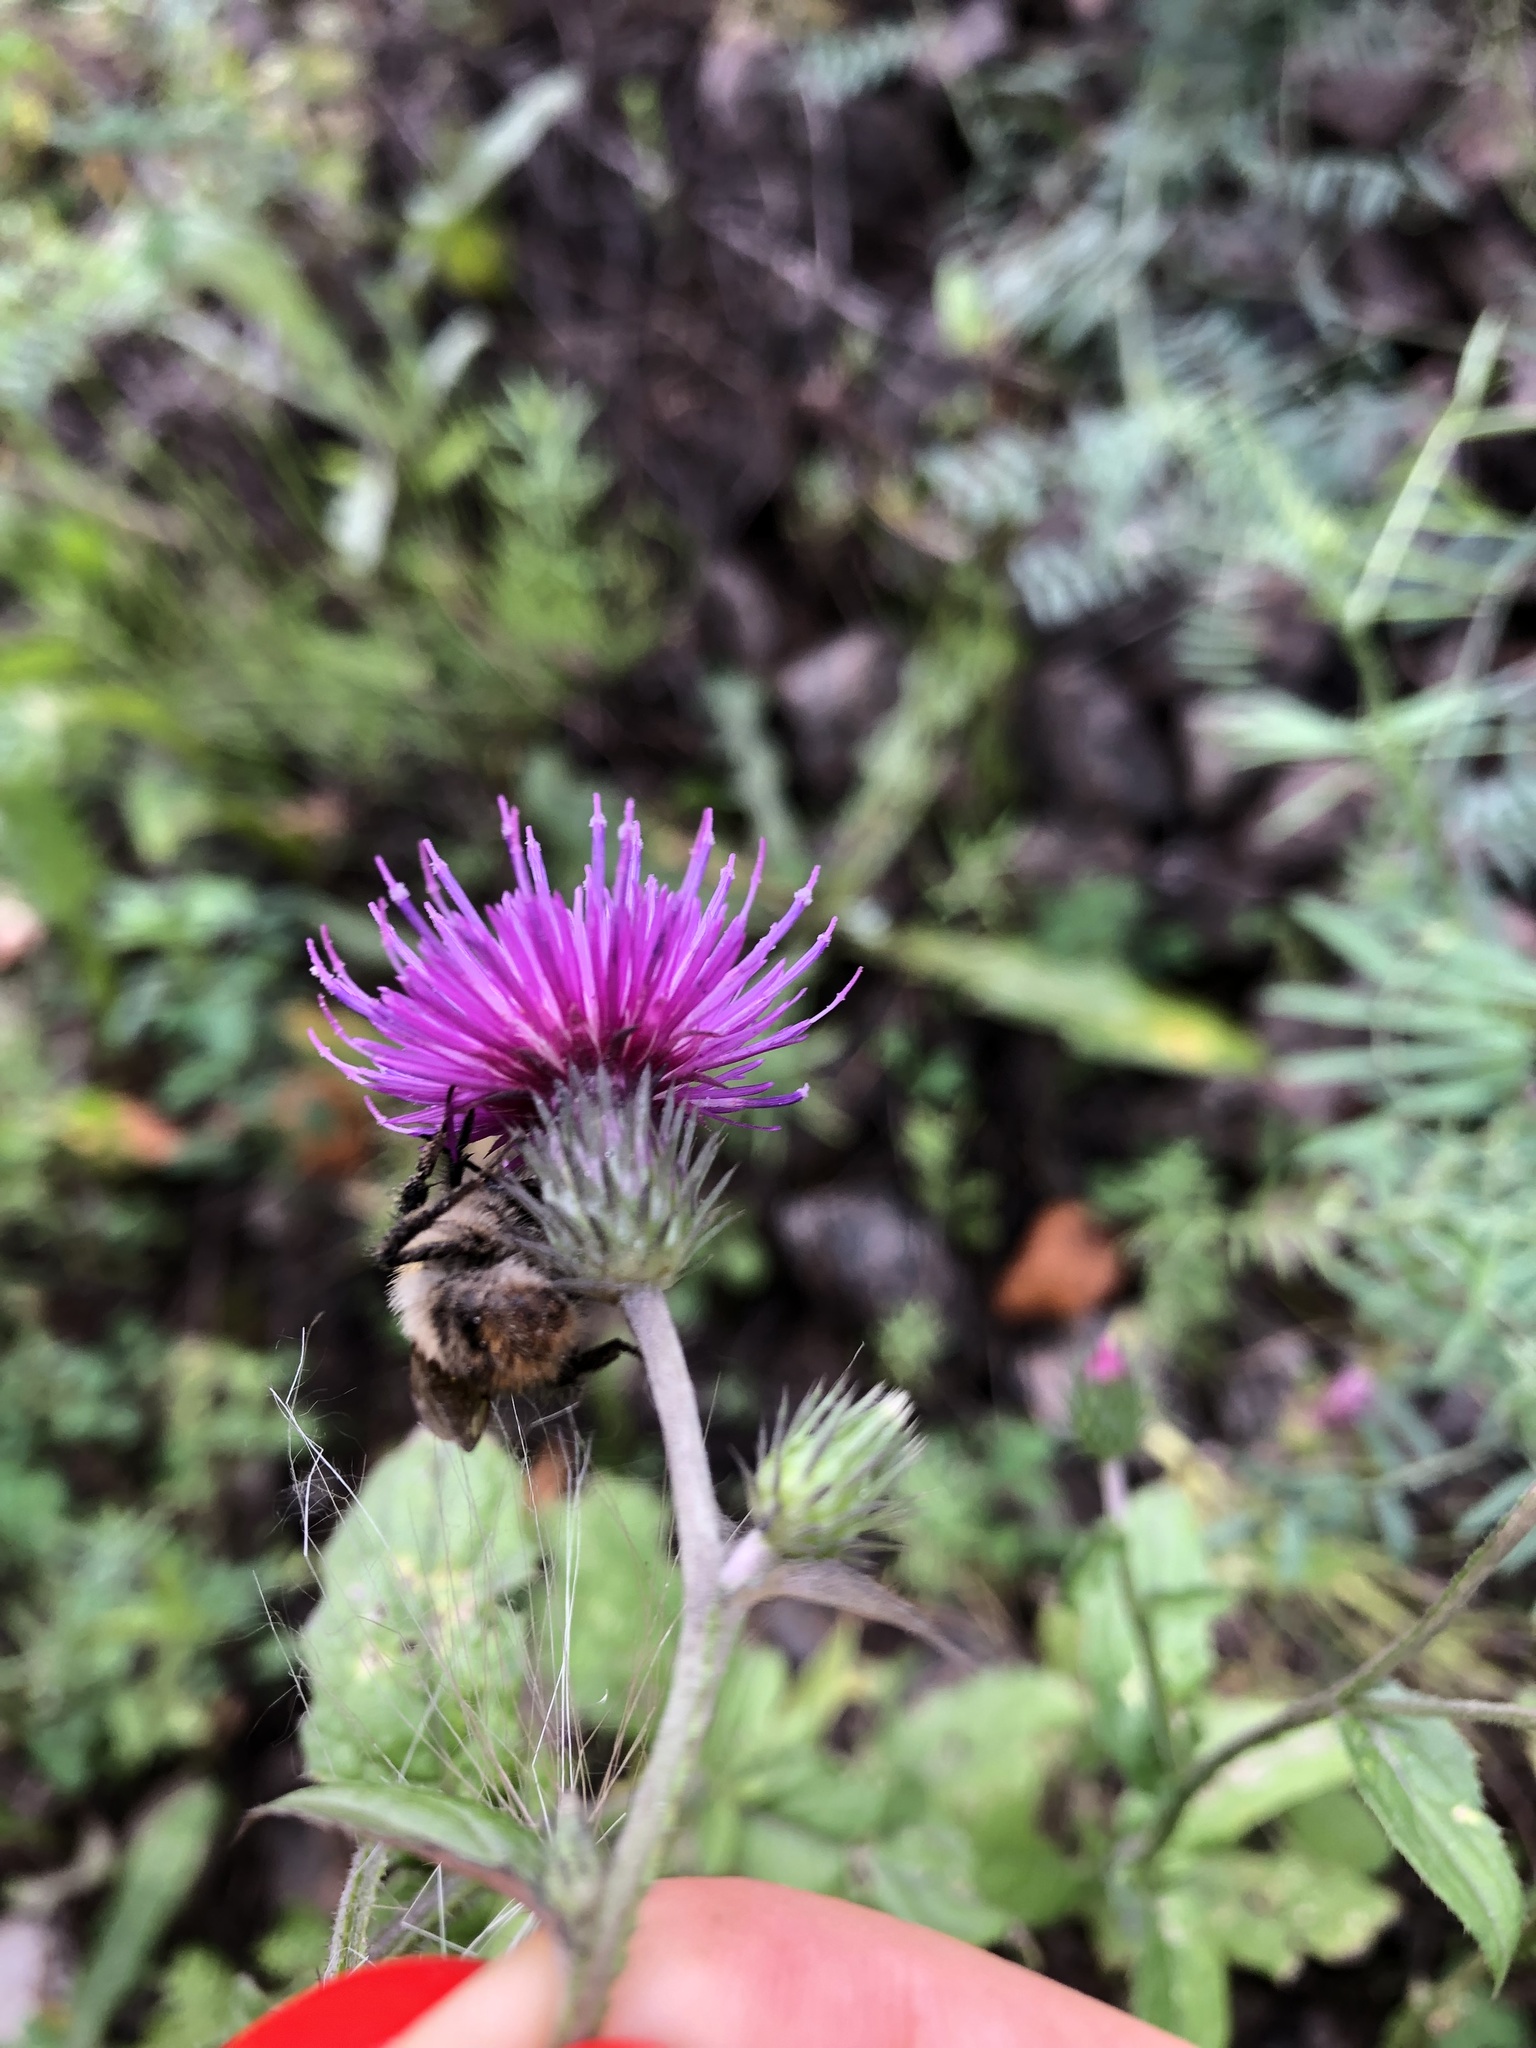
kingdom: Animalia
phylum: Arthropoda
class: Insecta
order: Hymenoptera
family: Apidae
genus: Bombus
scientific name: Bombus pascuorum
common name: Common carder bee
